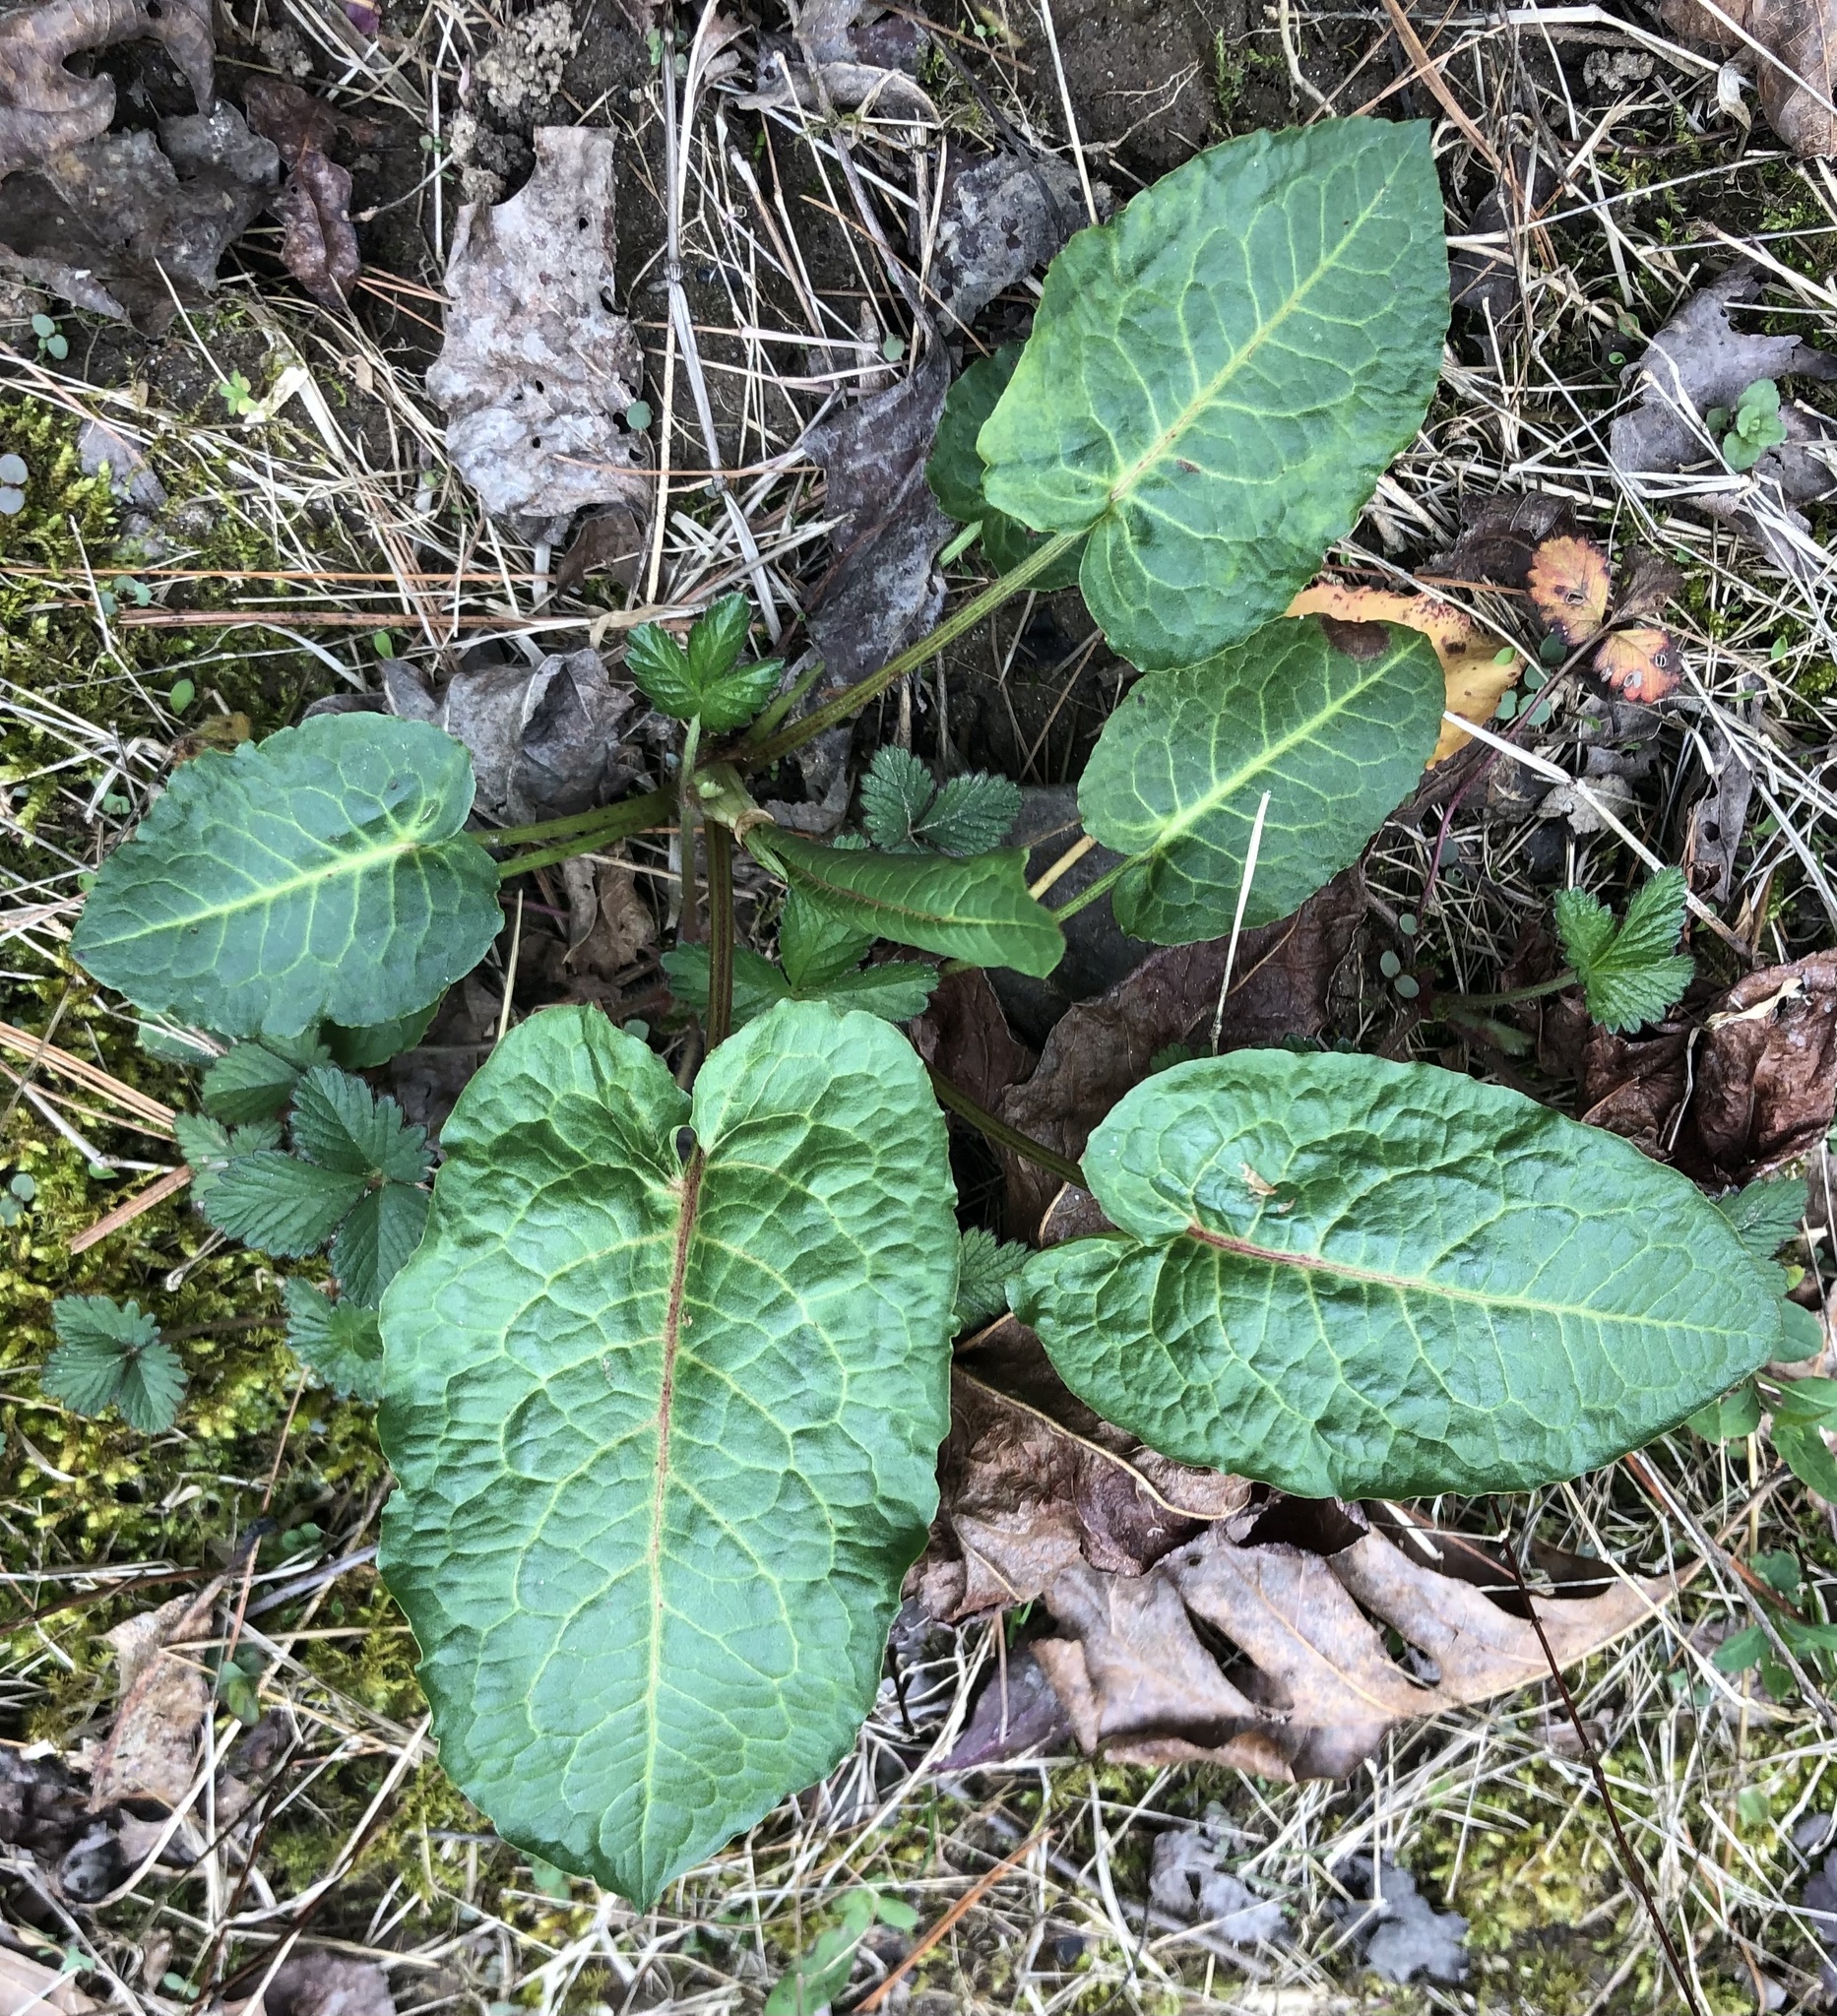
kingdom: Plantae
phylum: Tracheophyta
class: Magnoliopsida
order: Caryophyllales
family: Polygonaceae
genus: Rumex
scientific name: Rumex obtusifolius
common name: Bitter dock
